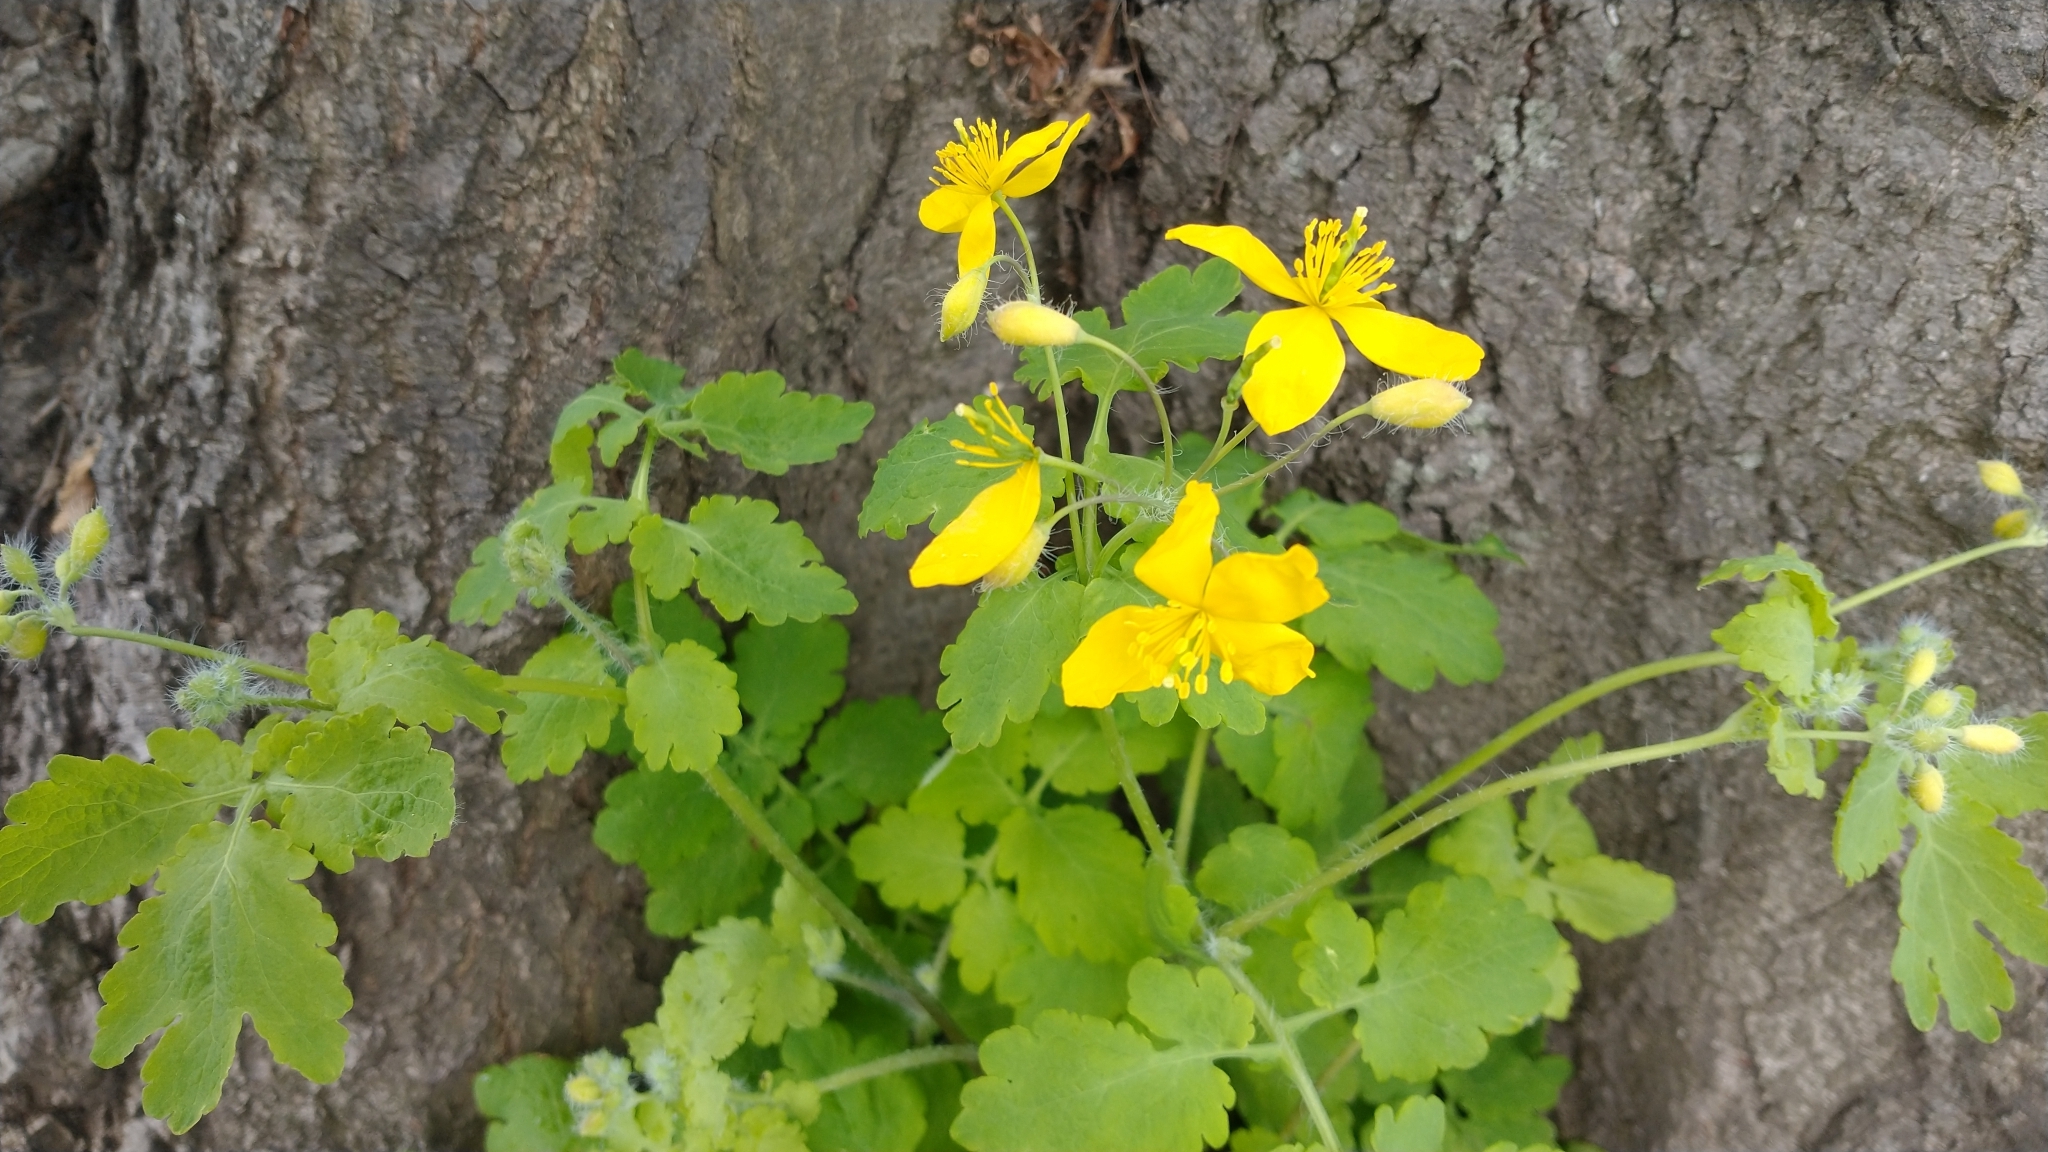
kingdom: Plantae
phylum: Tracheophyta
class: Magnoliopsida
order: Ranunculales
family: Papaveraceae
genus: Chelidonium
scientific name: Chelidonium majus
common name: Greater celandine
